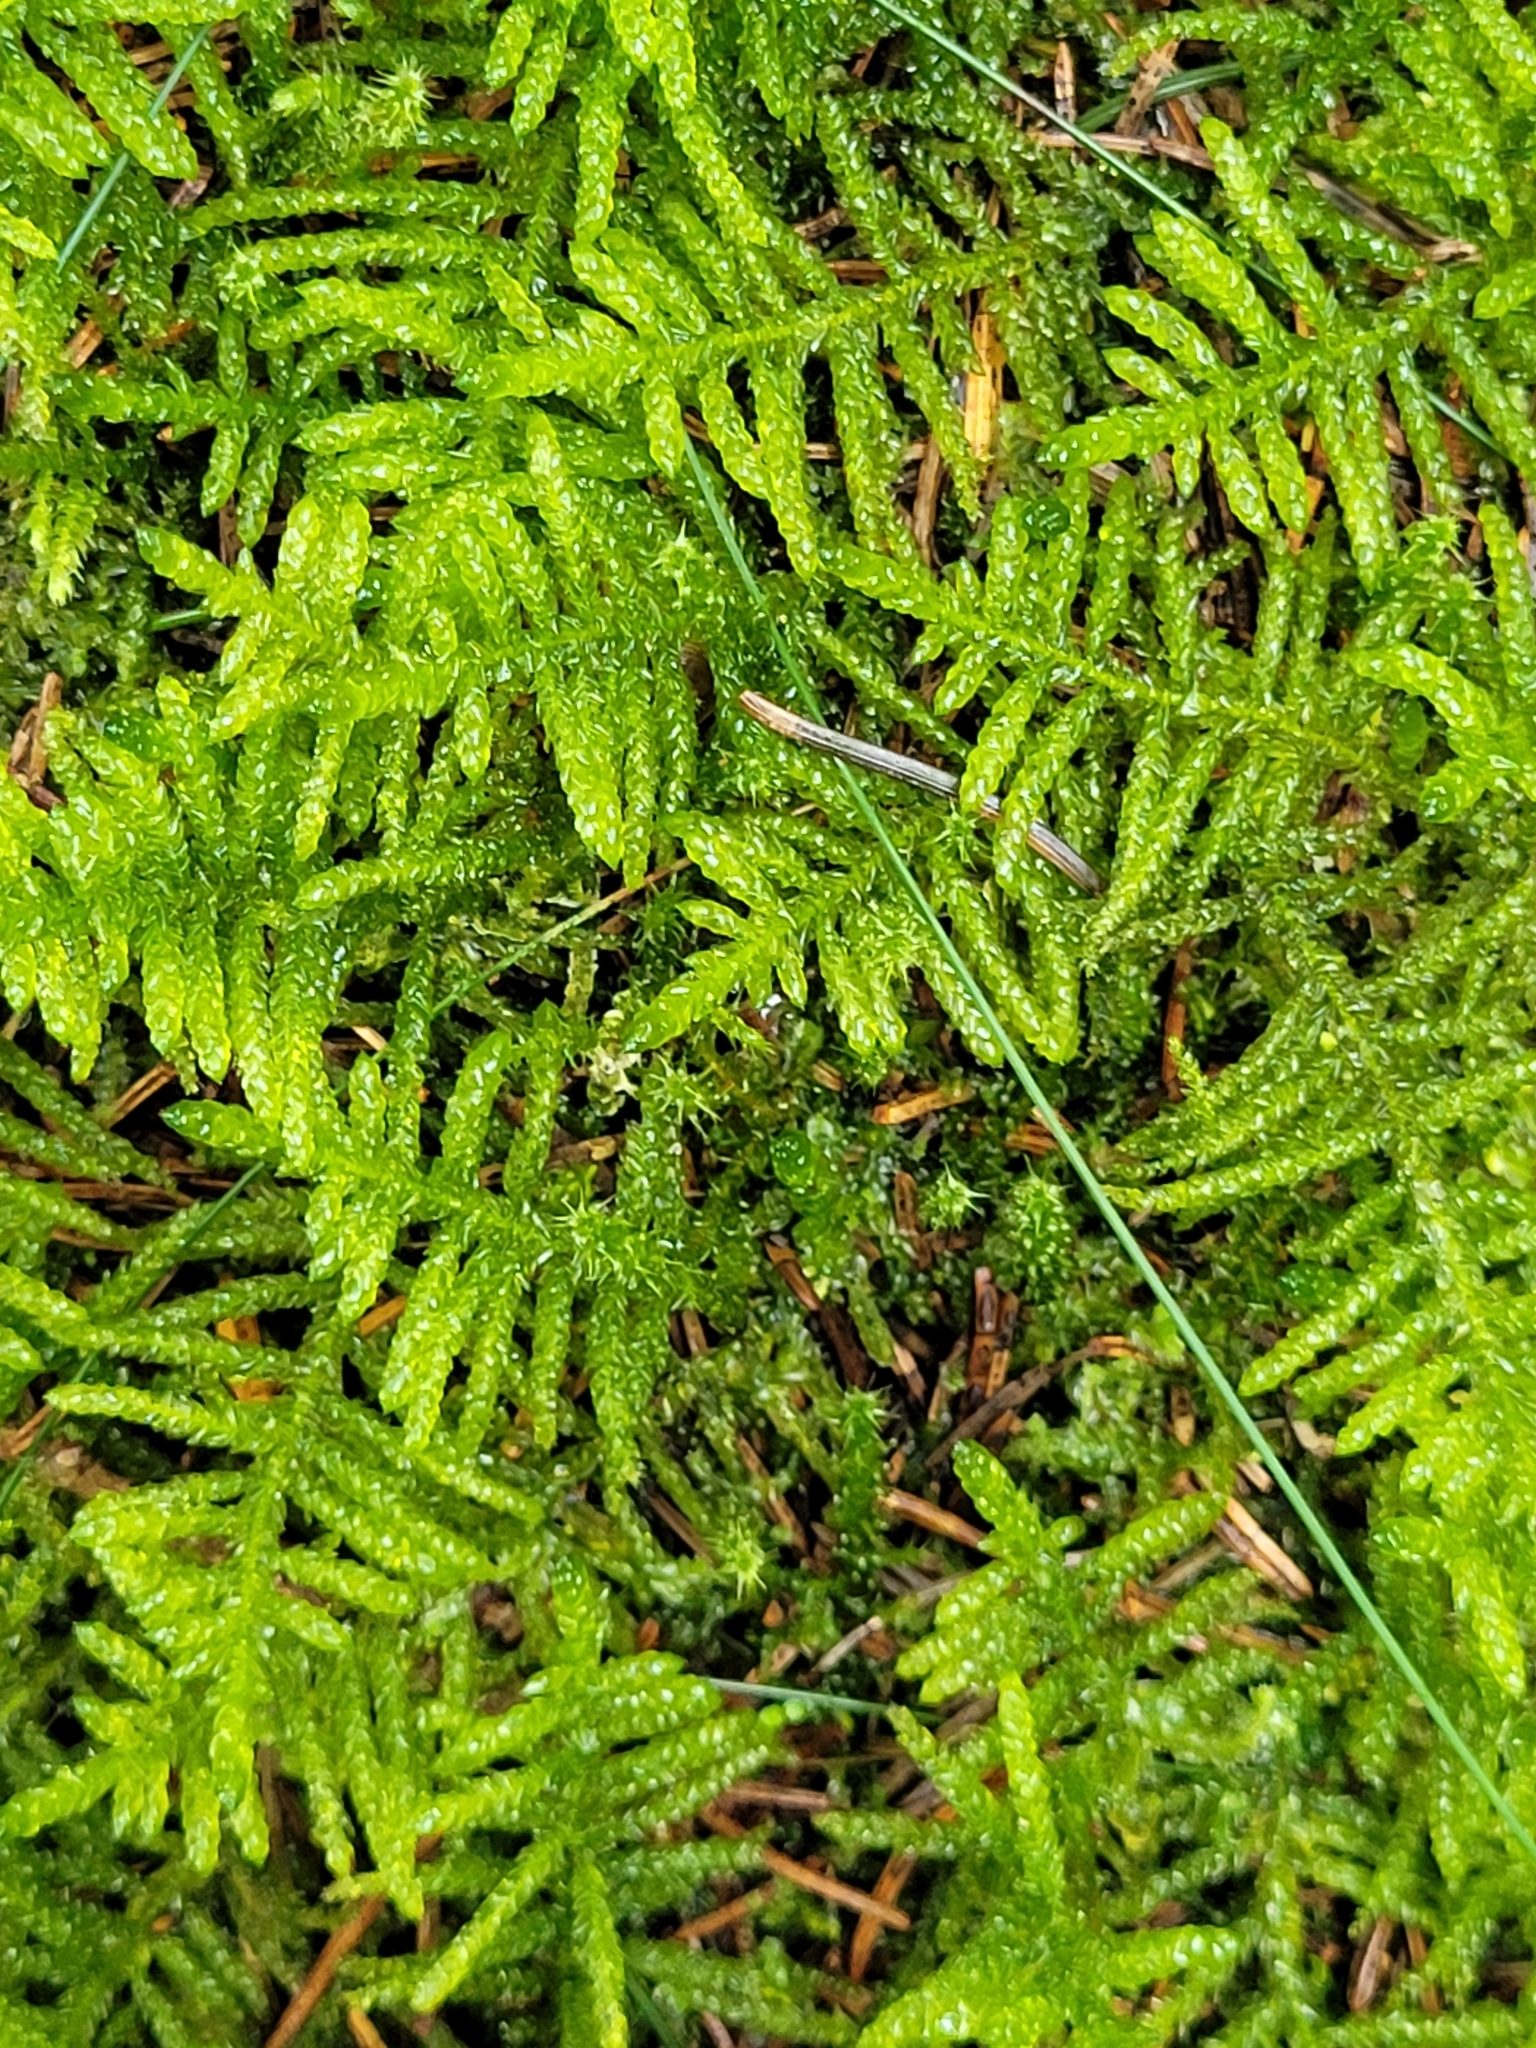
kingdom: Plantae
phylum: Bryophyta
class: Bryopsida
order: Hypnales
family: Brachytheciaceae
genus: Pseudoscleropodium
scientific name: Pseudoscleropodium purum
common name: Neat feather-moss
